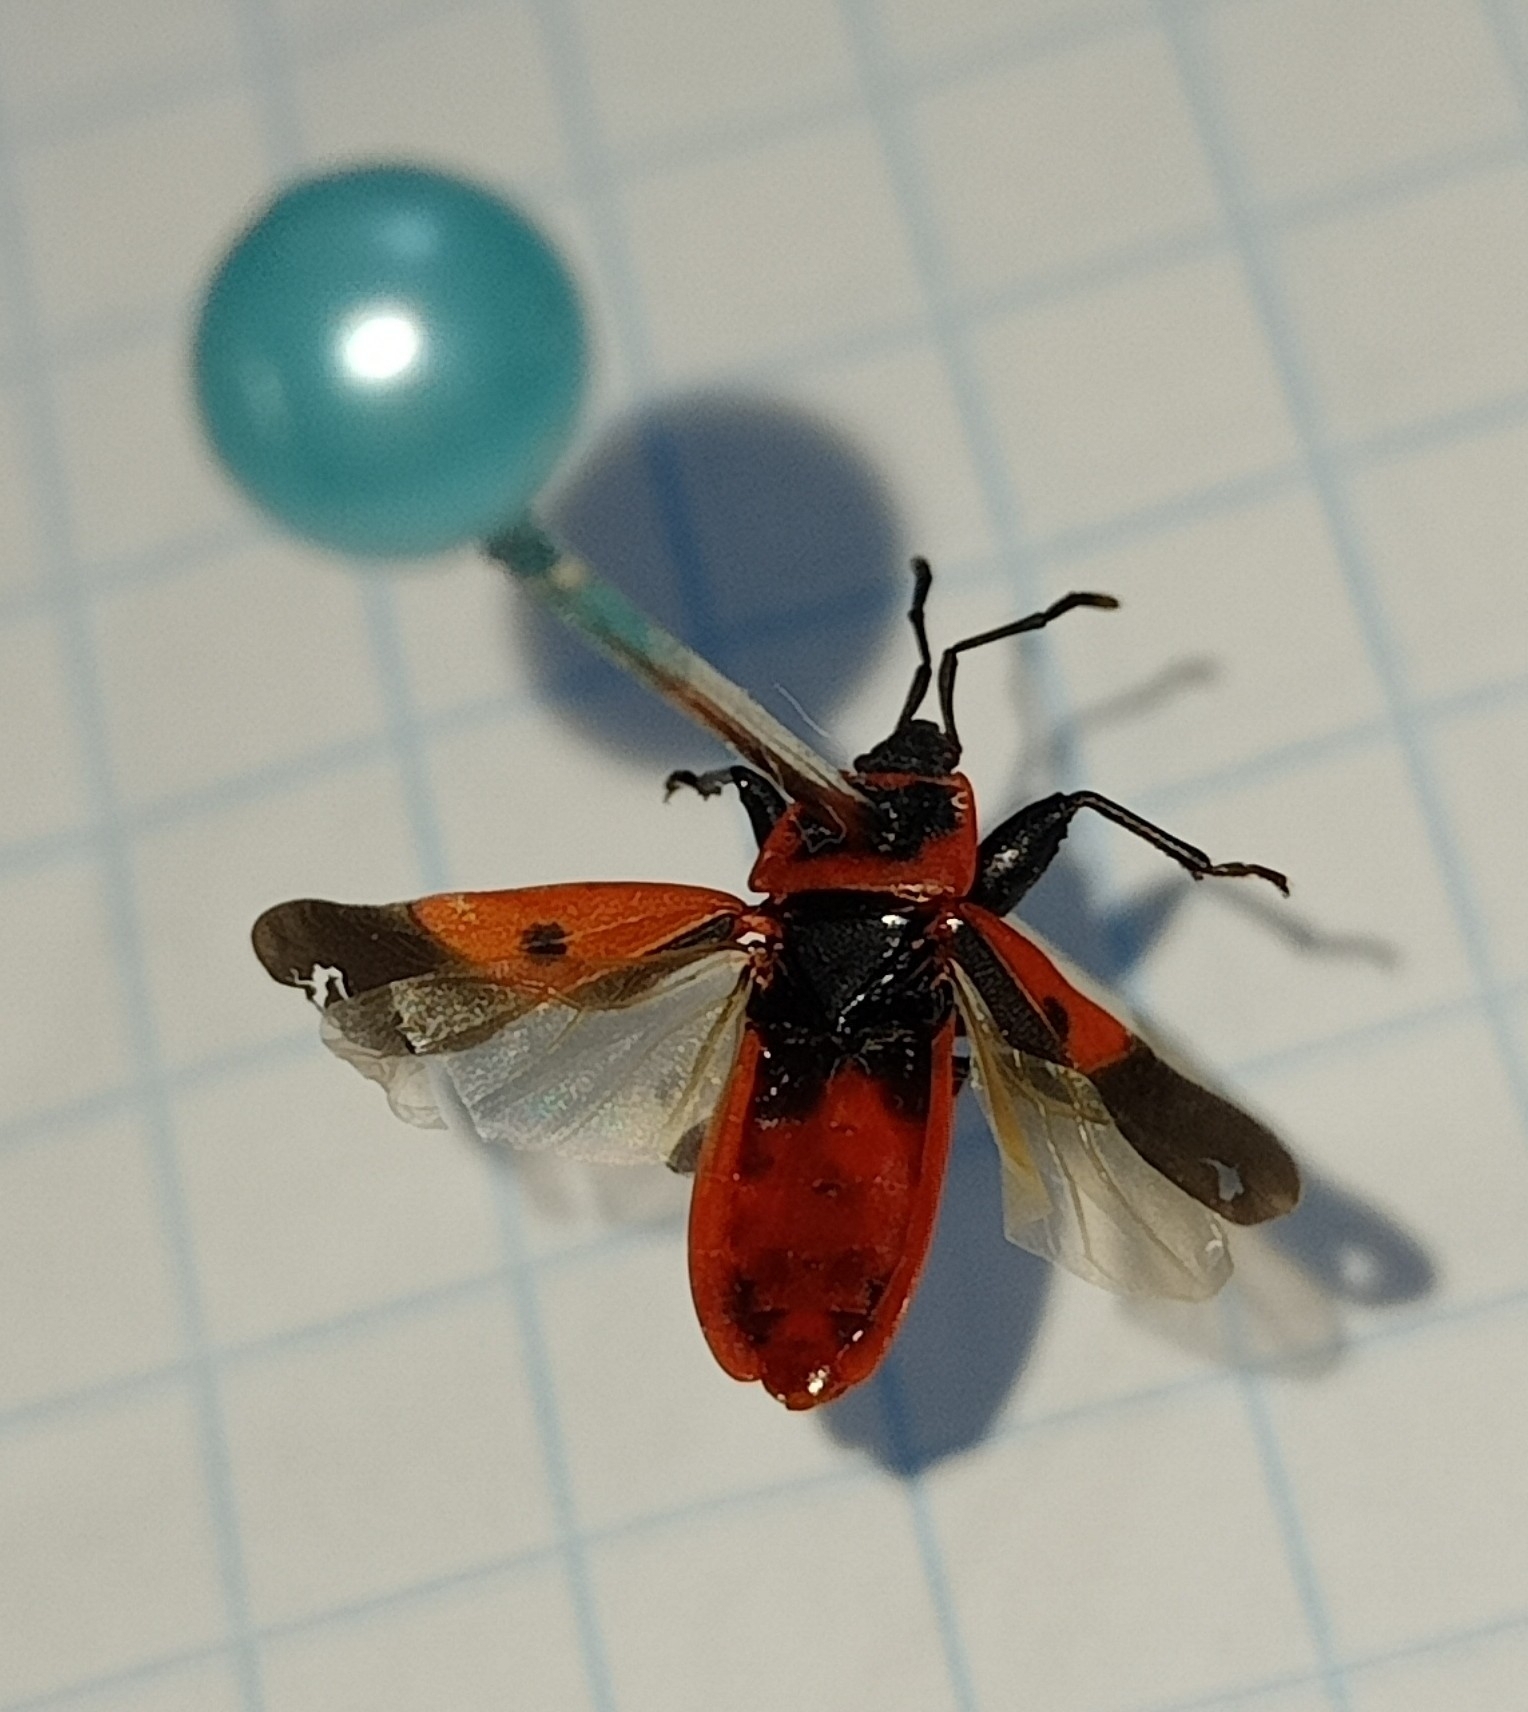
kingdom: Animalia
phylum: Arthropoda
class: Insecta
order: Hemiptera
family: Pyrrhocoridae
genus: Scantius
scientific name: Scantius aegyptius
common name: Red bug
